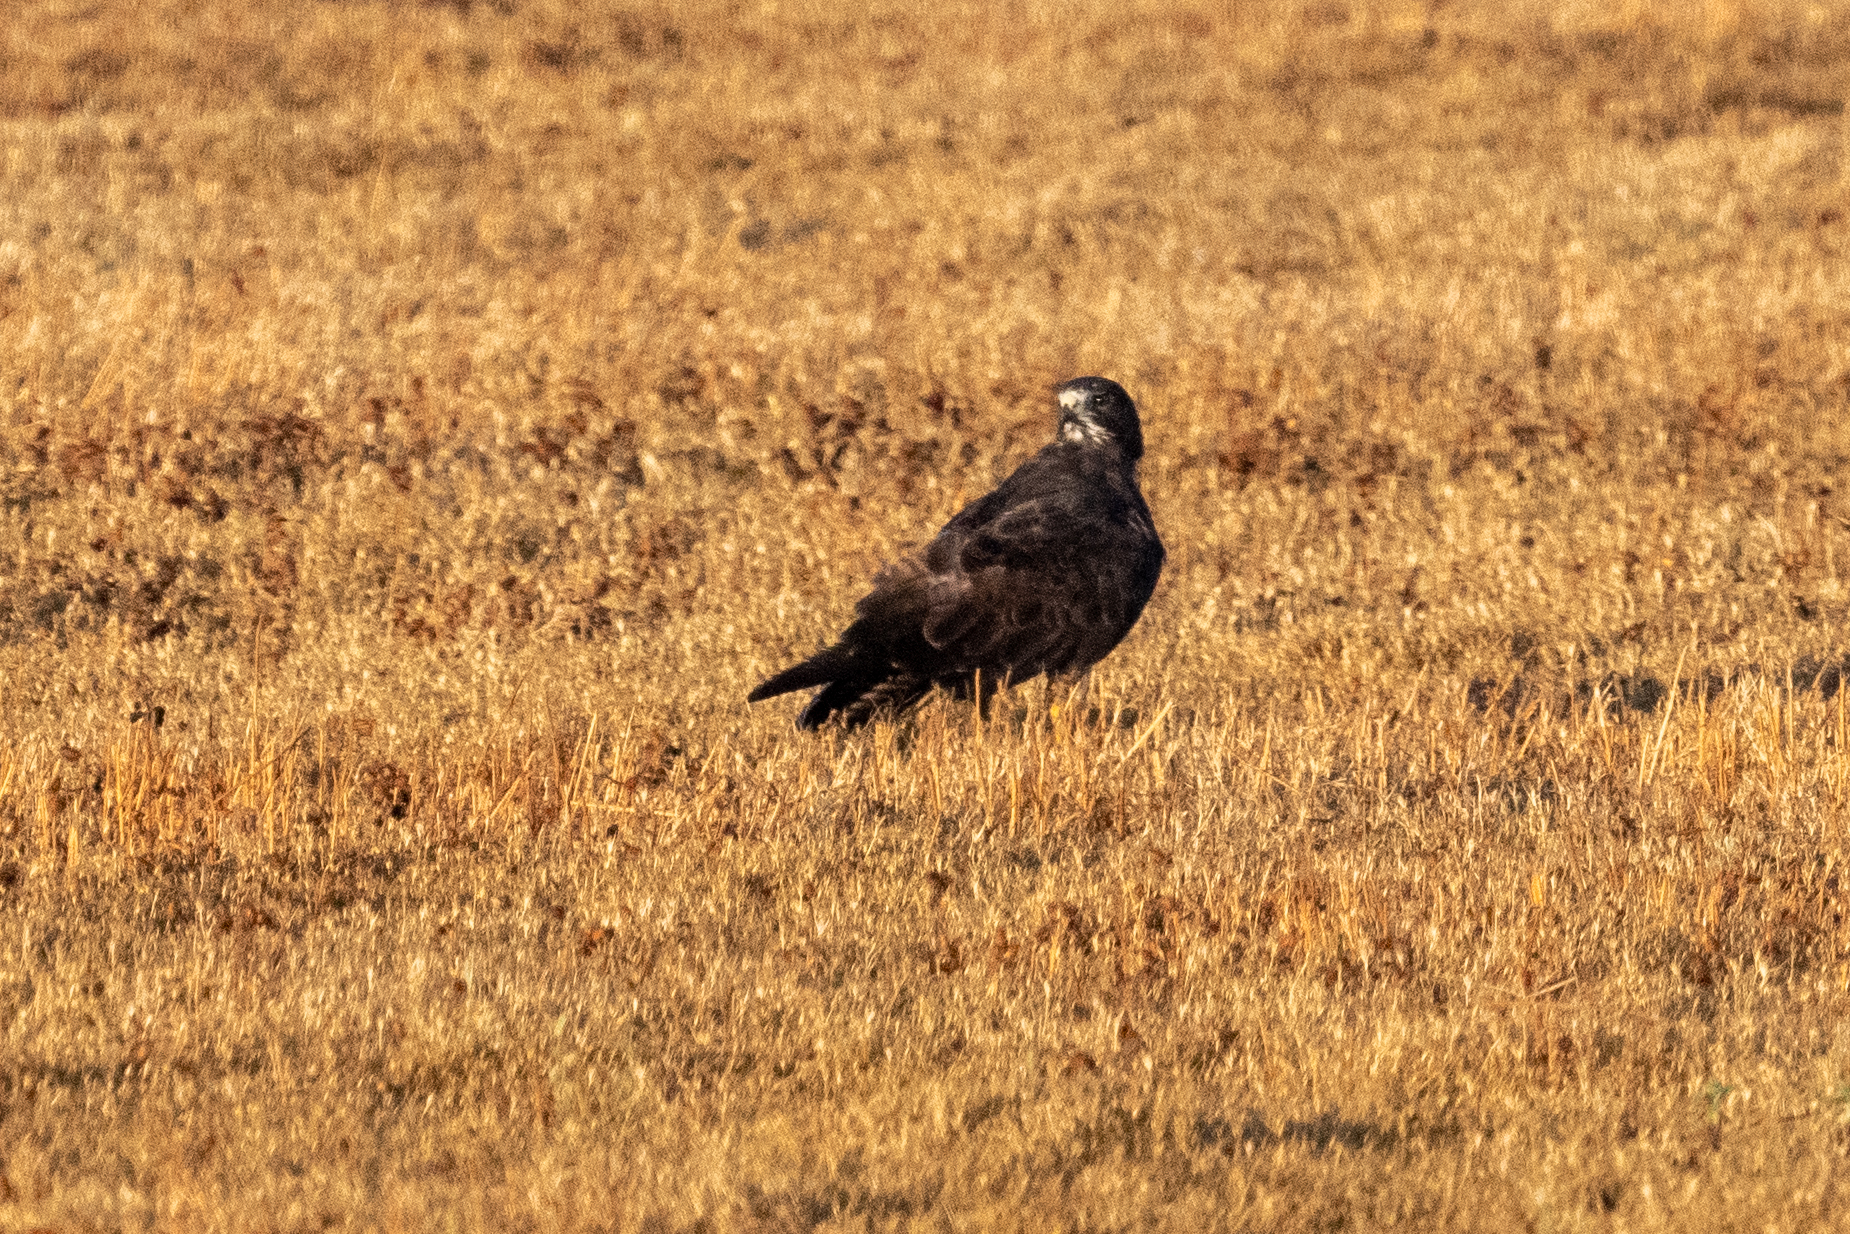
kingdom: Animalia
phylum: Chordata
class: Aves
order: Accipitriformes
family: Accipitridae
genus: Buteo
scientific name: Buteo swainsoni
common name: Swainson's hawk
